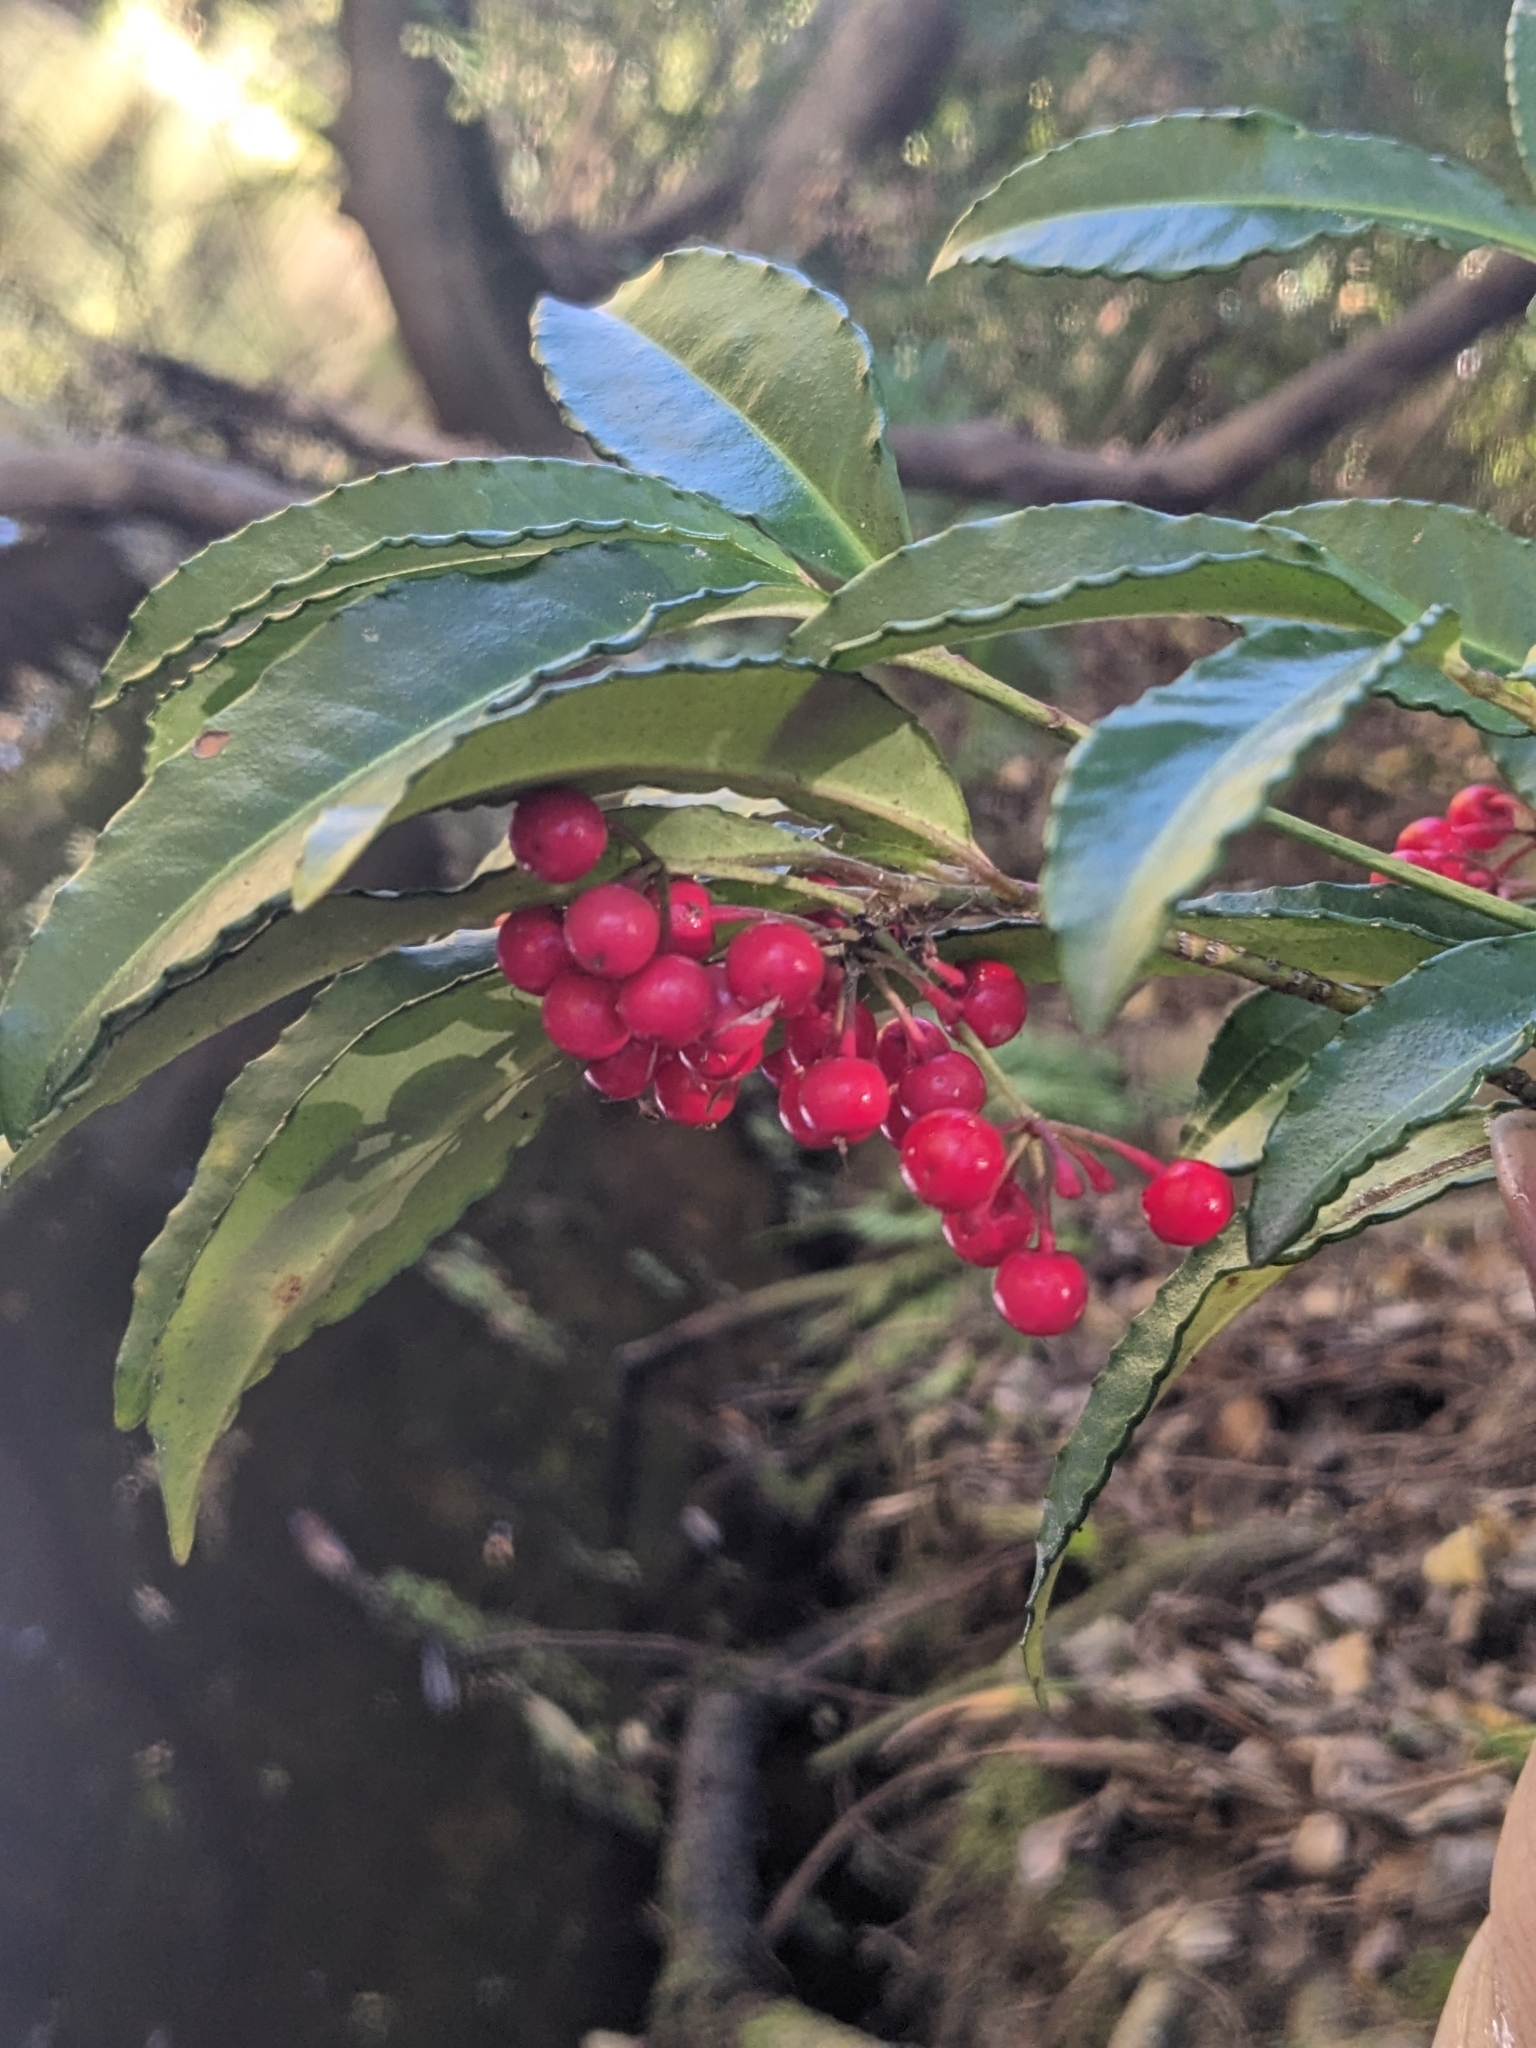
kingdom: Plantae
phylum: Tracheophyta
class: Magnoliopsida
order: Ericales
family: Primulaceae
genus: Ardisia
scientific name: Ardisia crenata
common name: Hen's eyes
